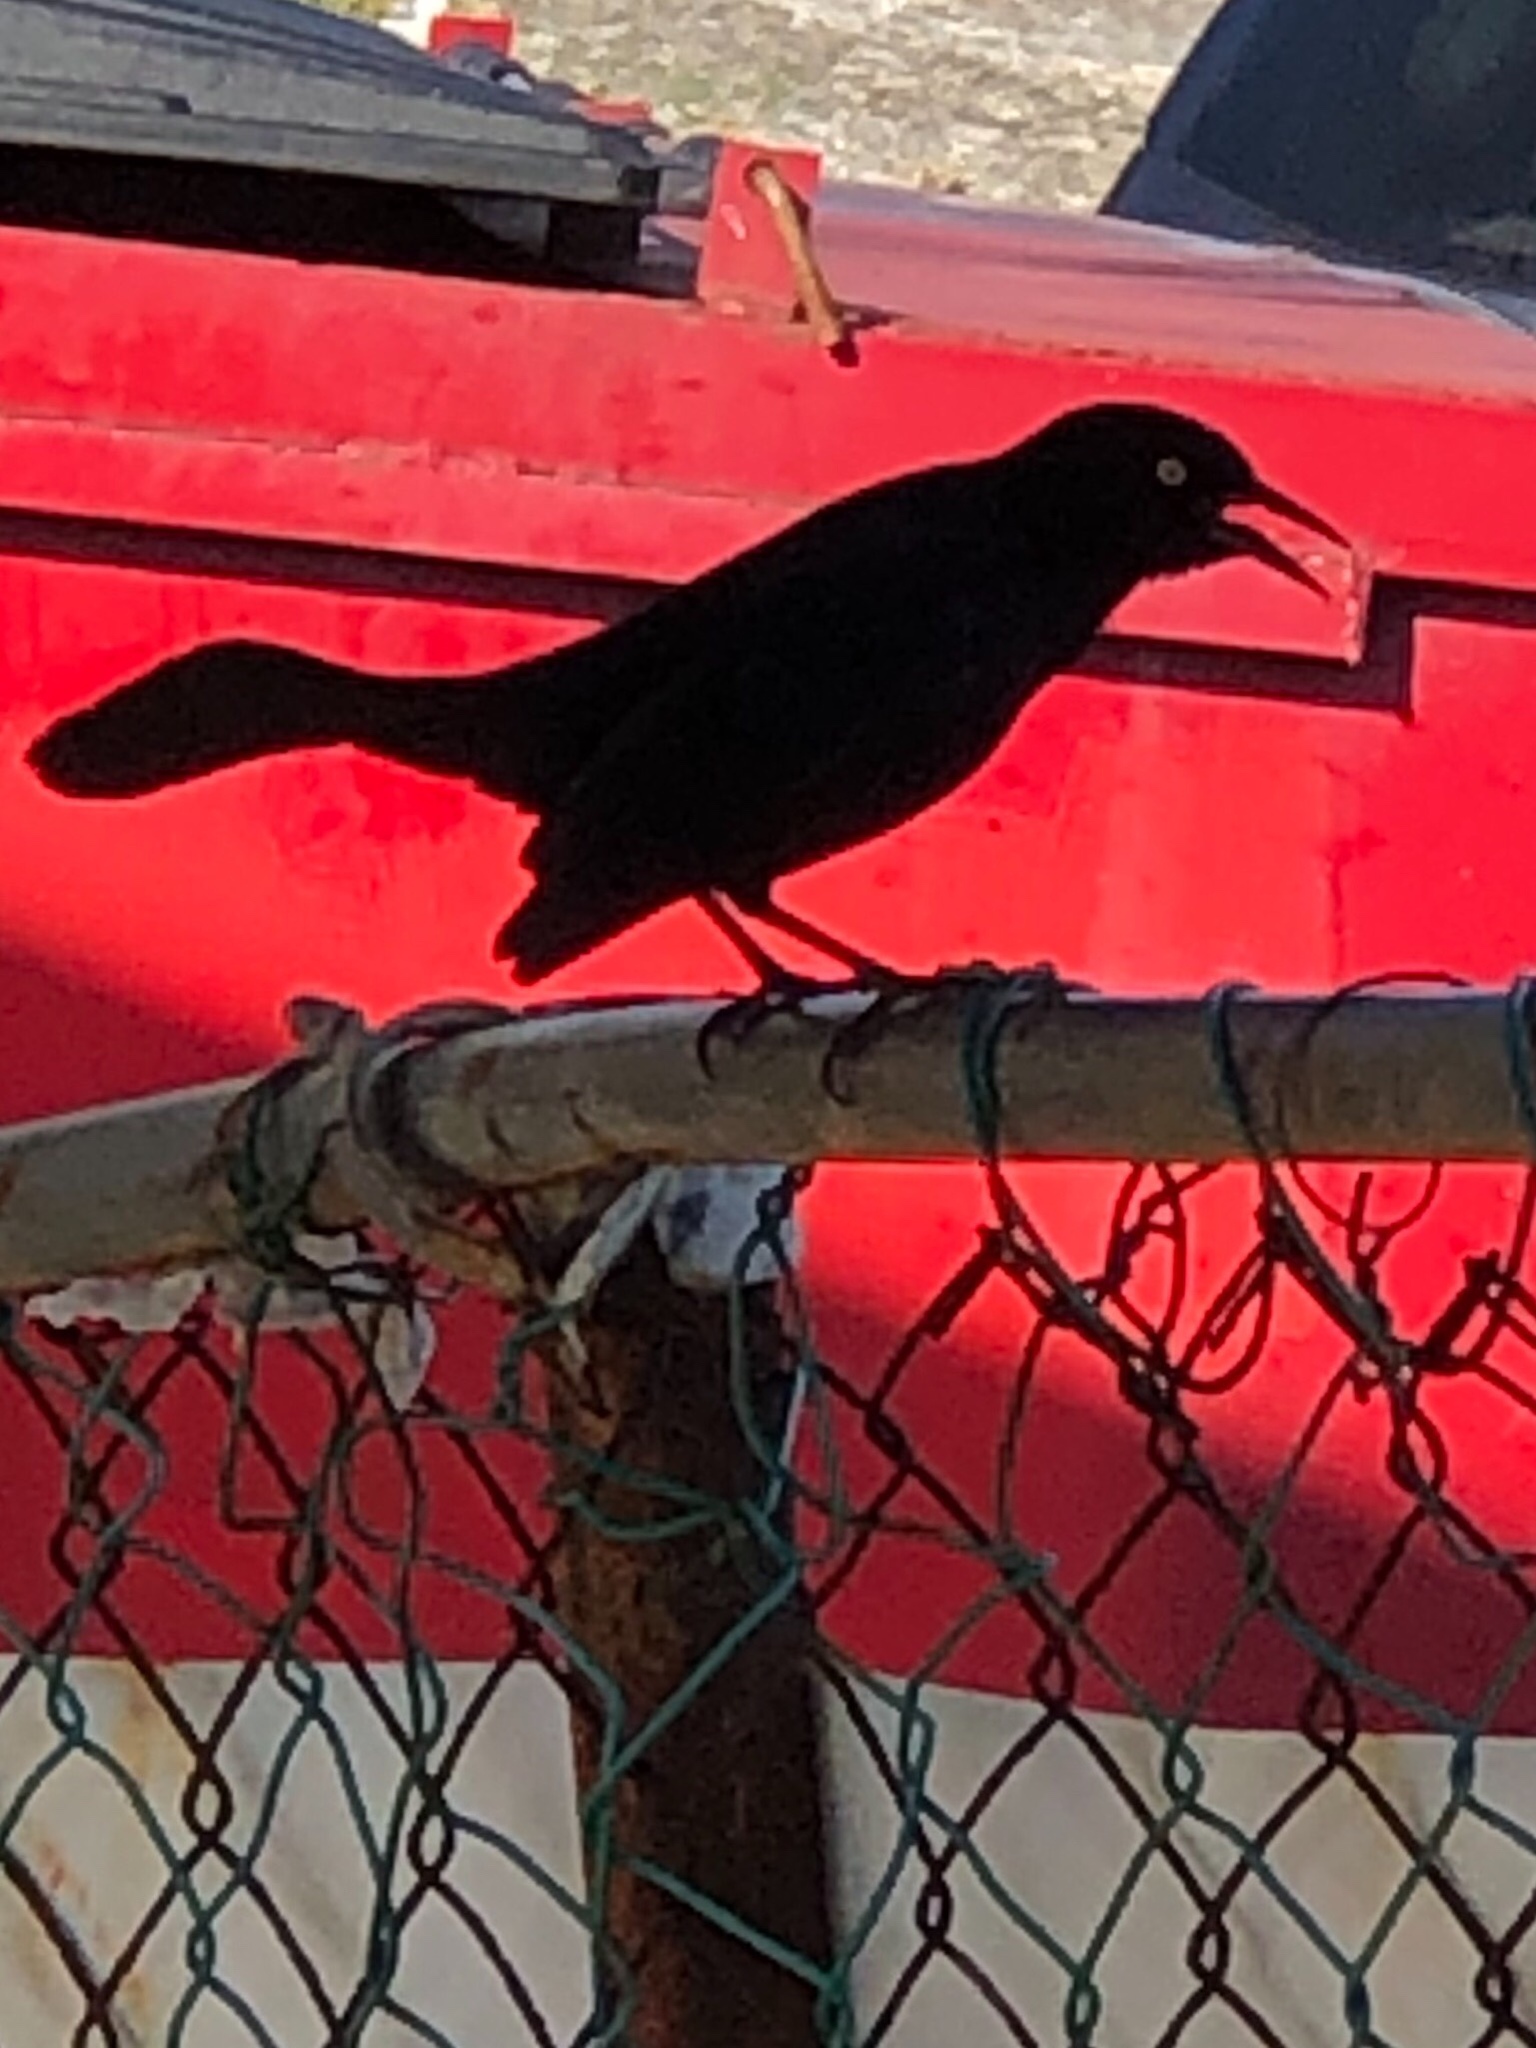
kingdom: Animalia
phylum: Chordata
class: Aves
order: Passeriformes
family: Icteridae
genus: Quiscalus
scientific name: Quiscalus niger
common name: Greater antillean grackle
